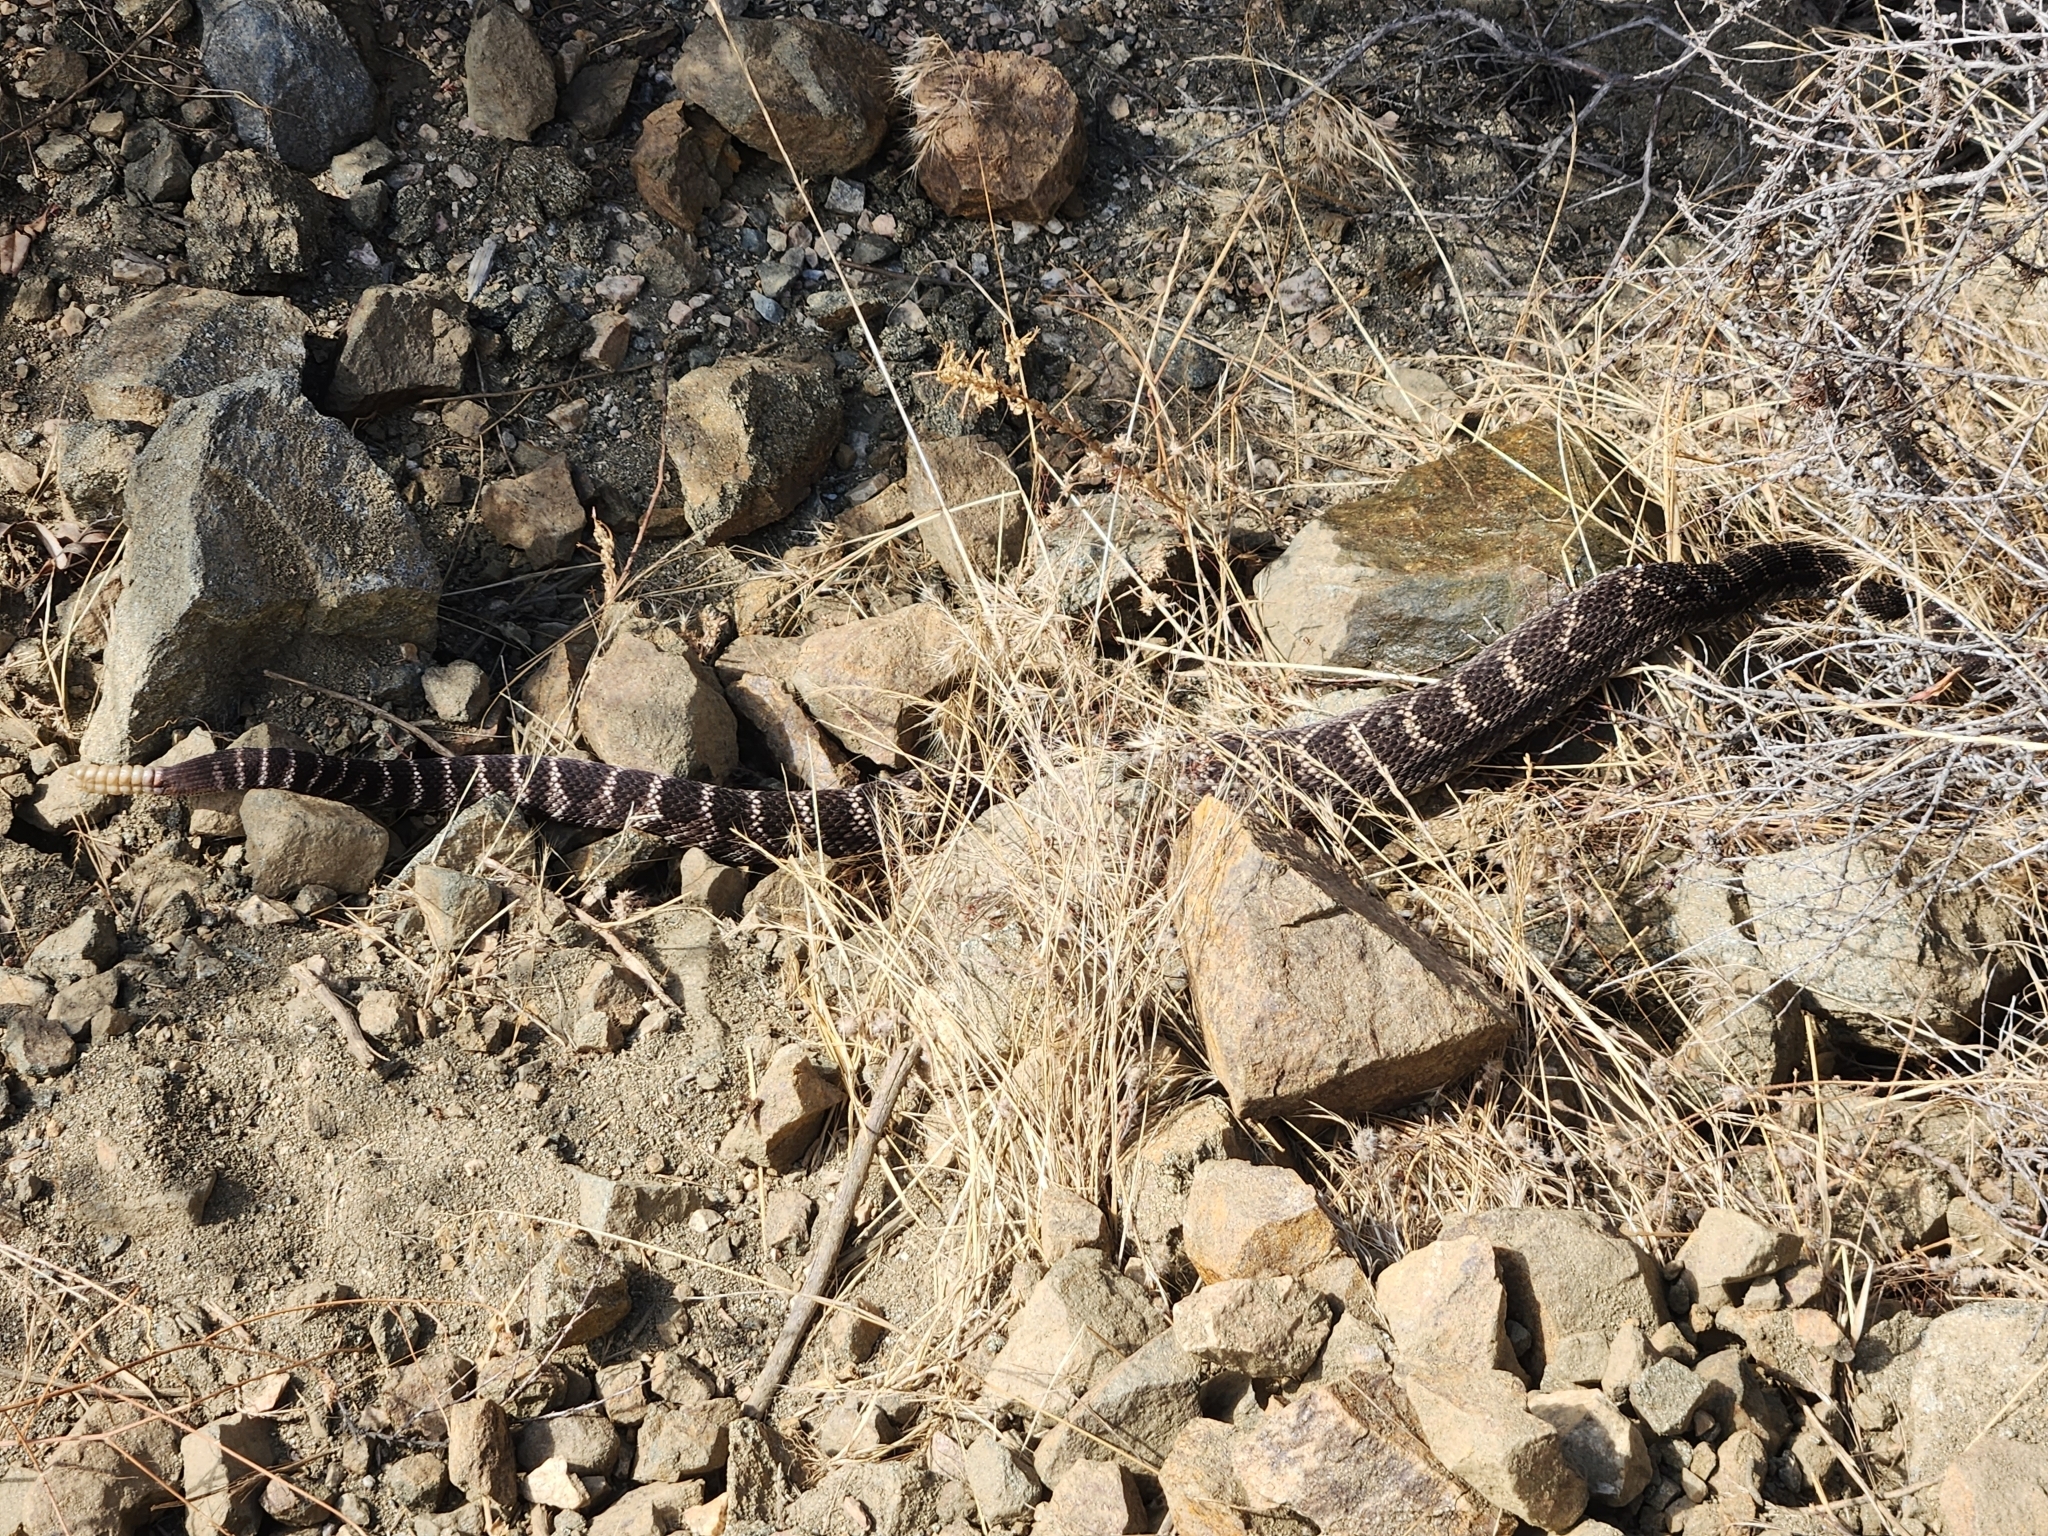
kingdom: Animalia
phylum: Chordata
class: Squamata
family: Viperidae
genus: Crotalus
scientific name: Crotalus oreganus
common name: Abyssus
